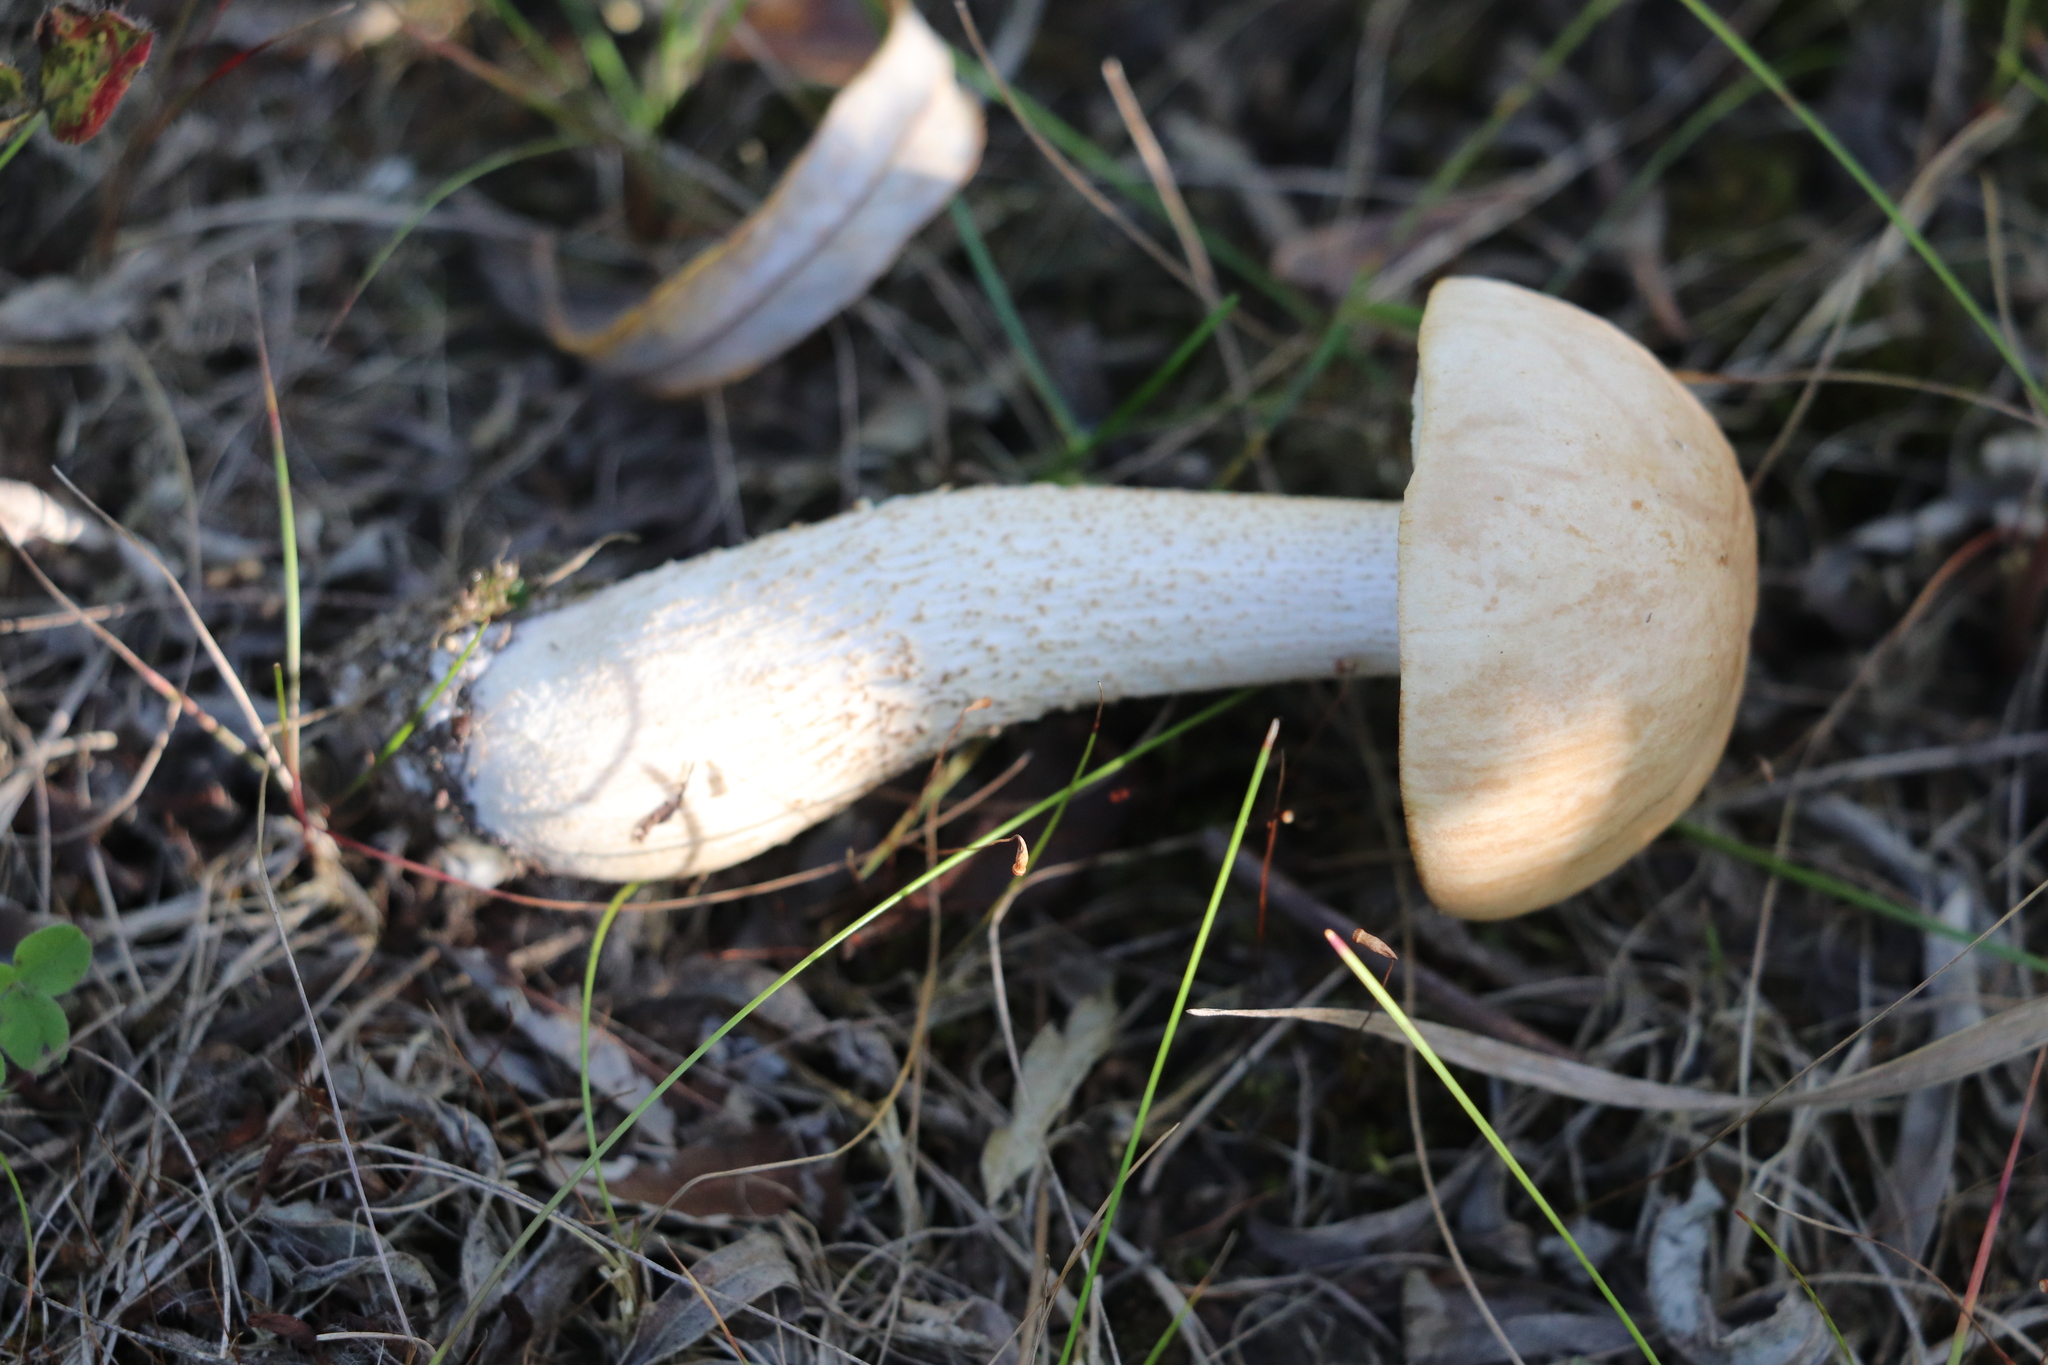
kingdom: Fungi
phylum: Basidiomycota
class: Agaricomycetes
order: Boletales
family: Boletaceae
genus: Leccinum
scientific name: Leccinum scabrum
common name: Blushing bolete
